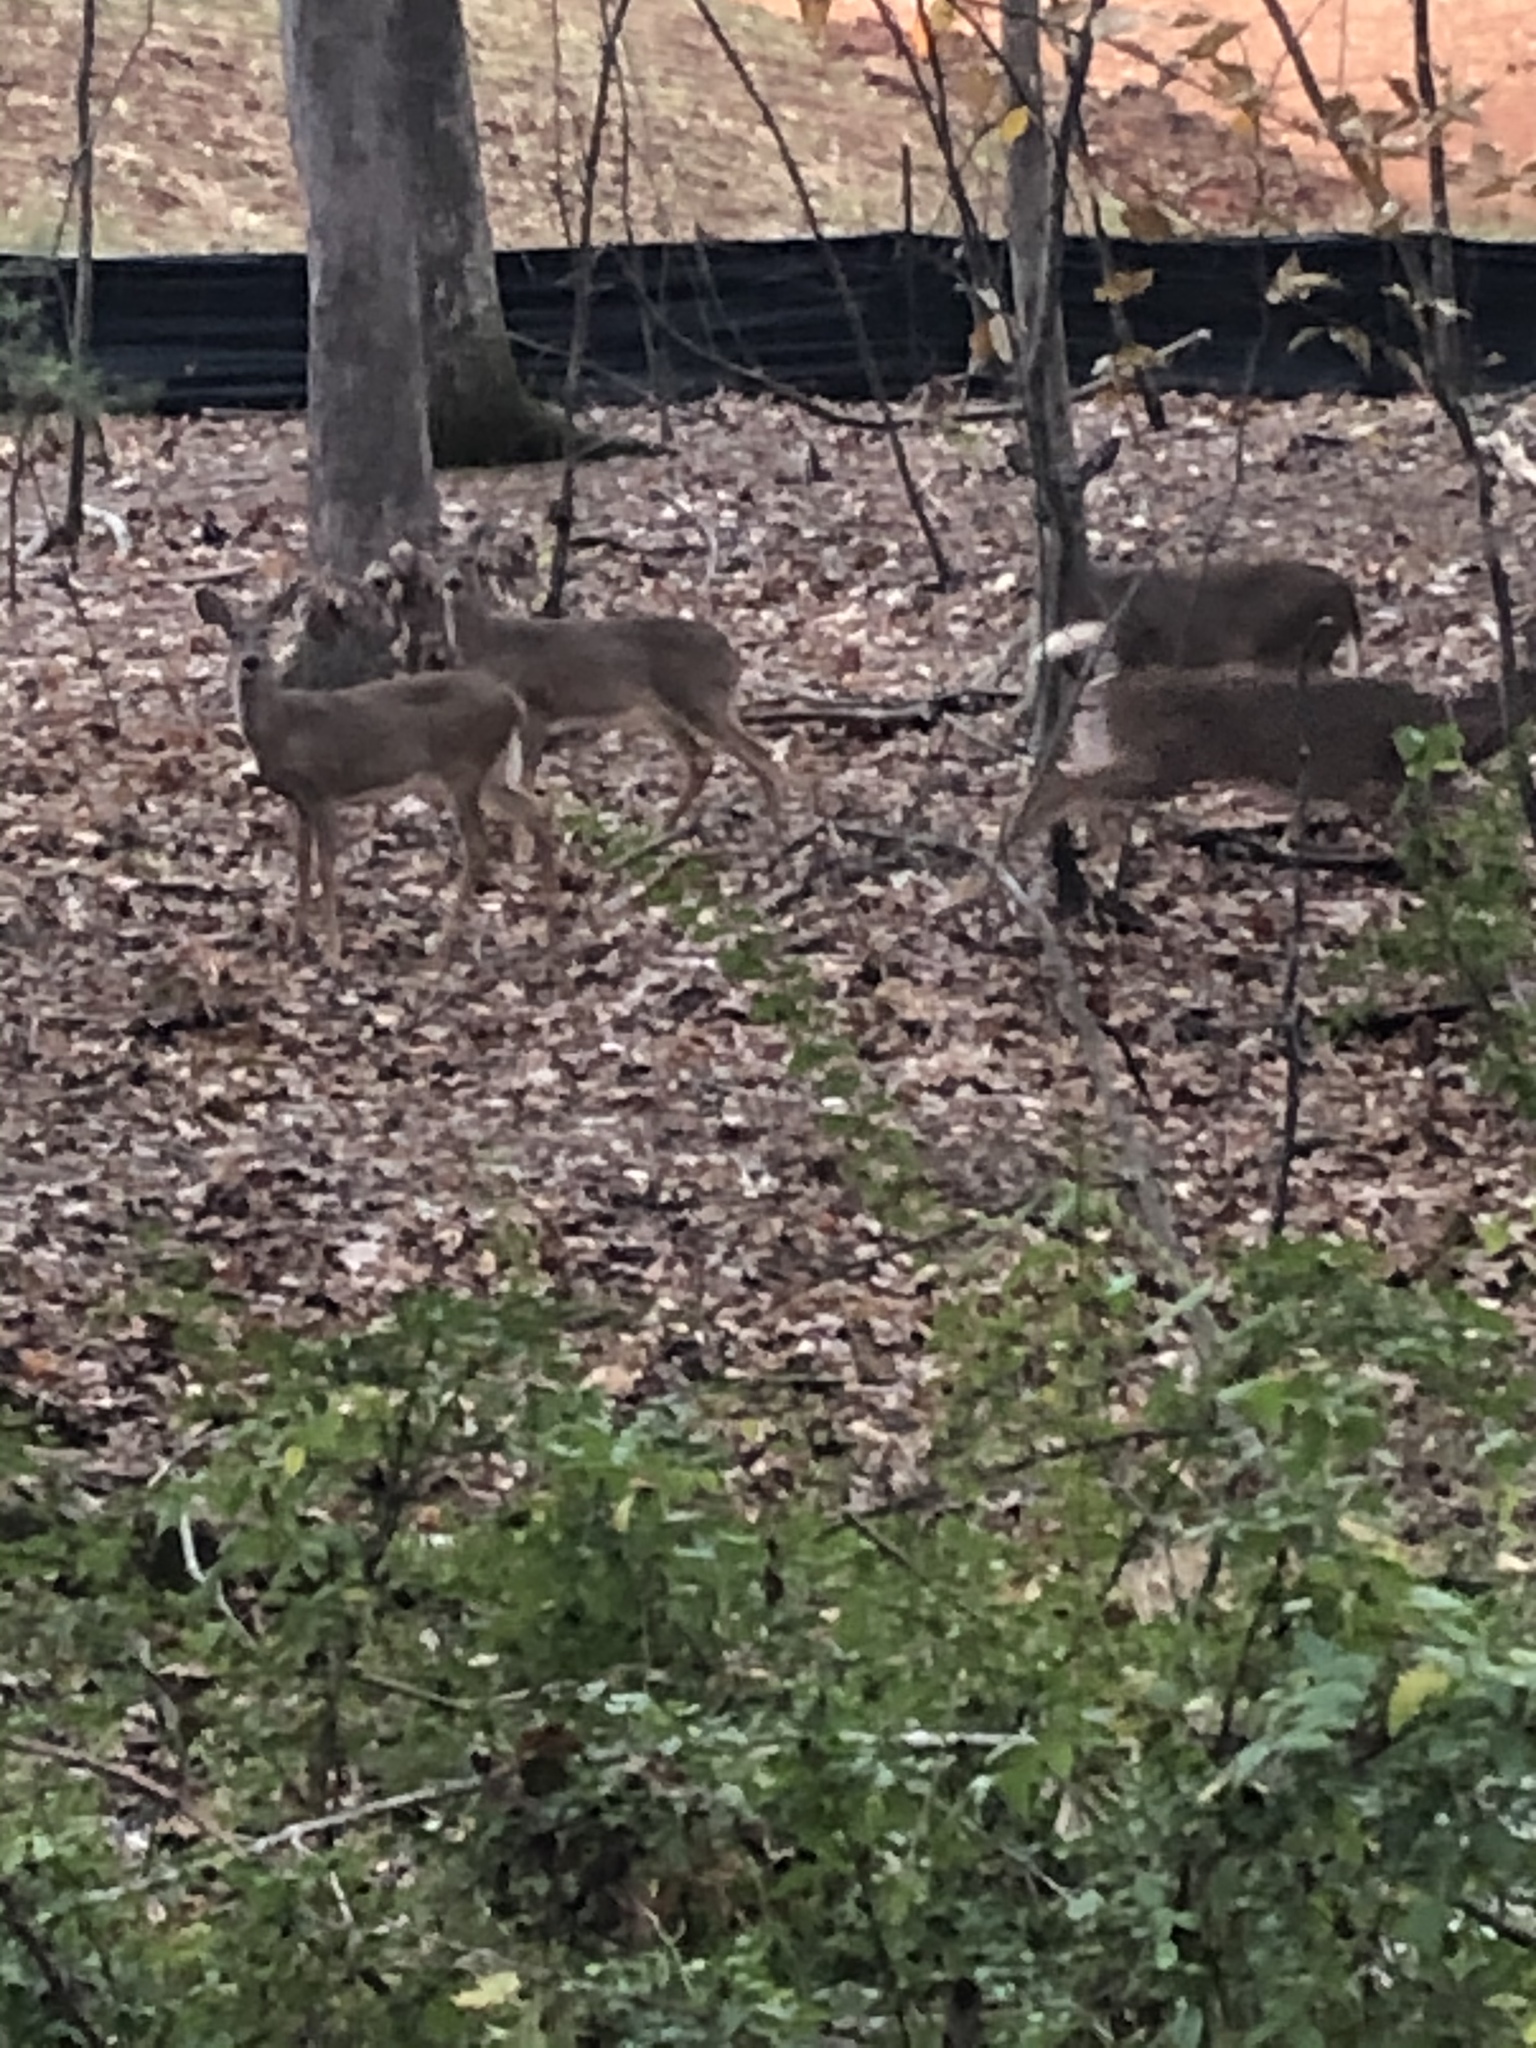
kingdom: Animalia
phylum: Chordata
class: Mammalia
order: Artiodactyla
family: Cervidae
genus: Odocoileus
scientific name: Odocoileus virginianus
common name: White-tailed deer
